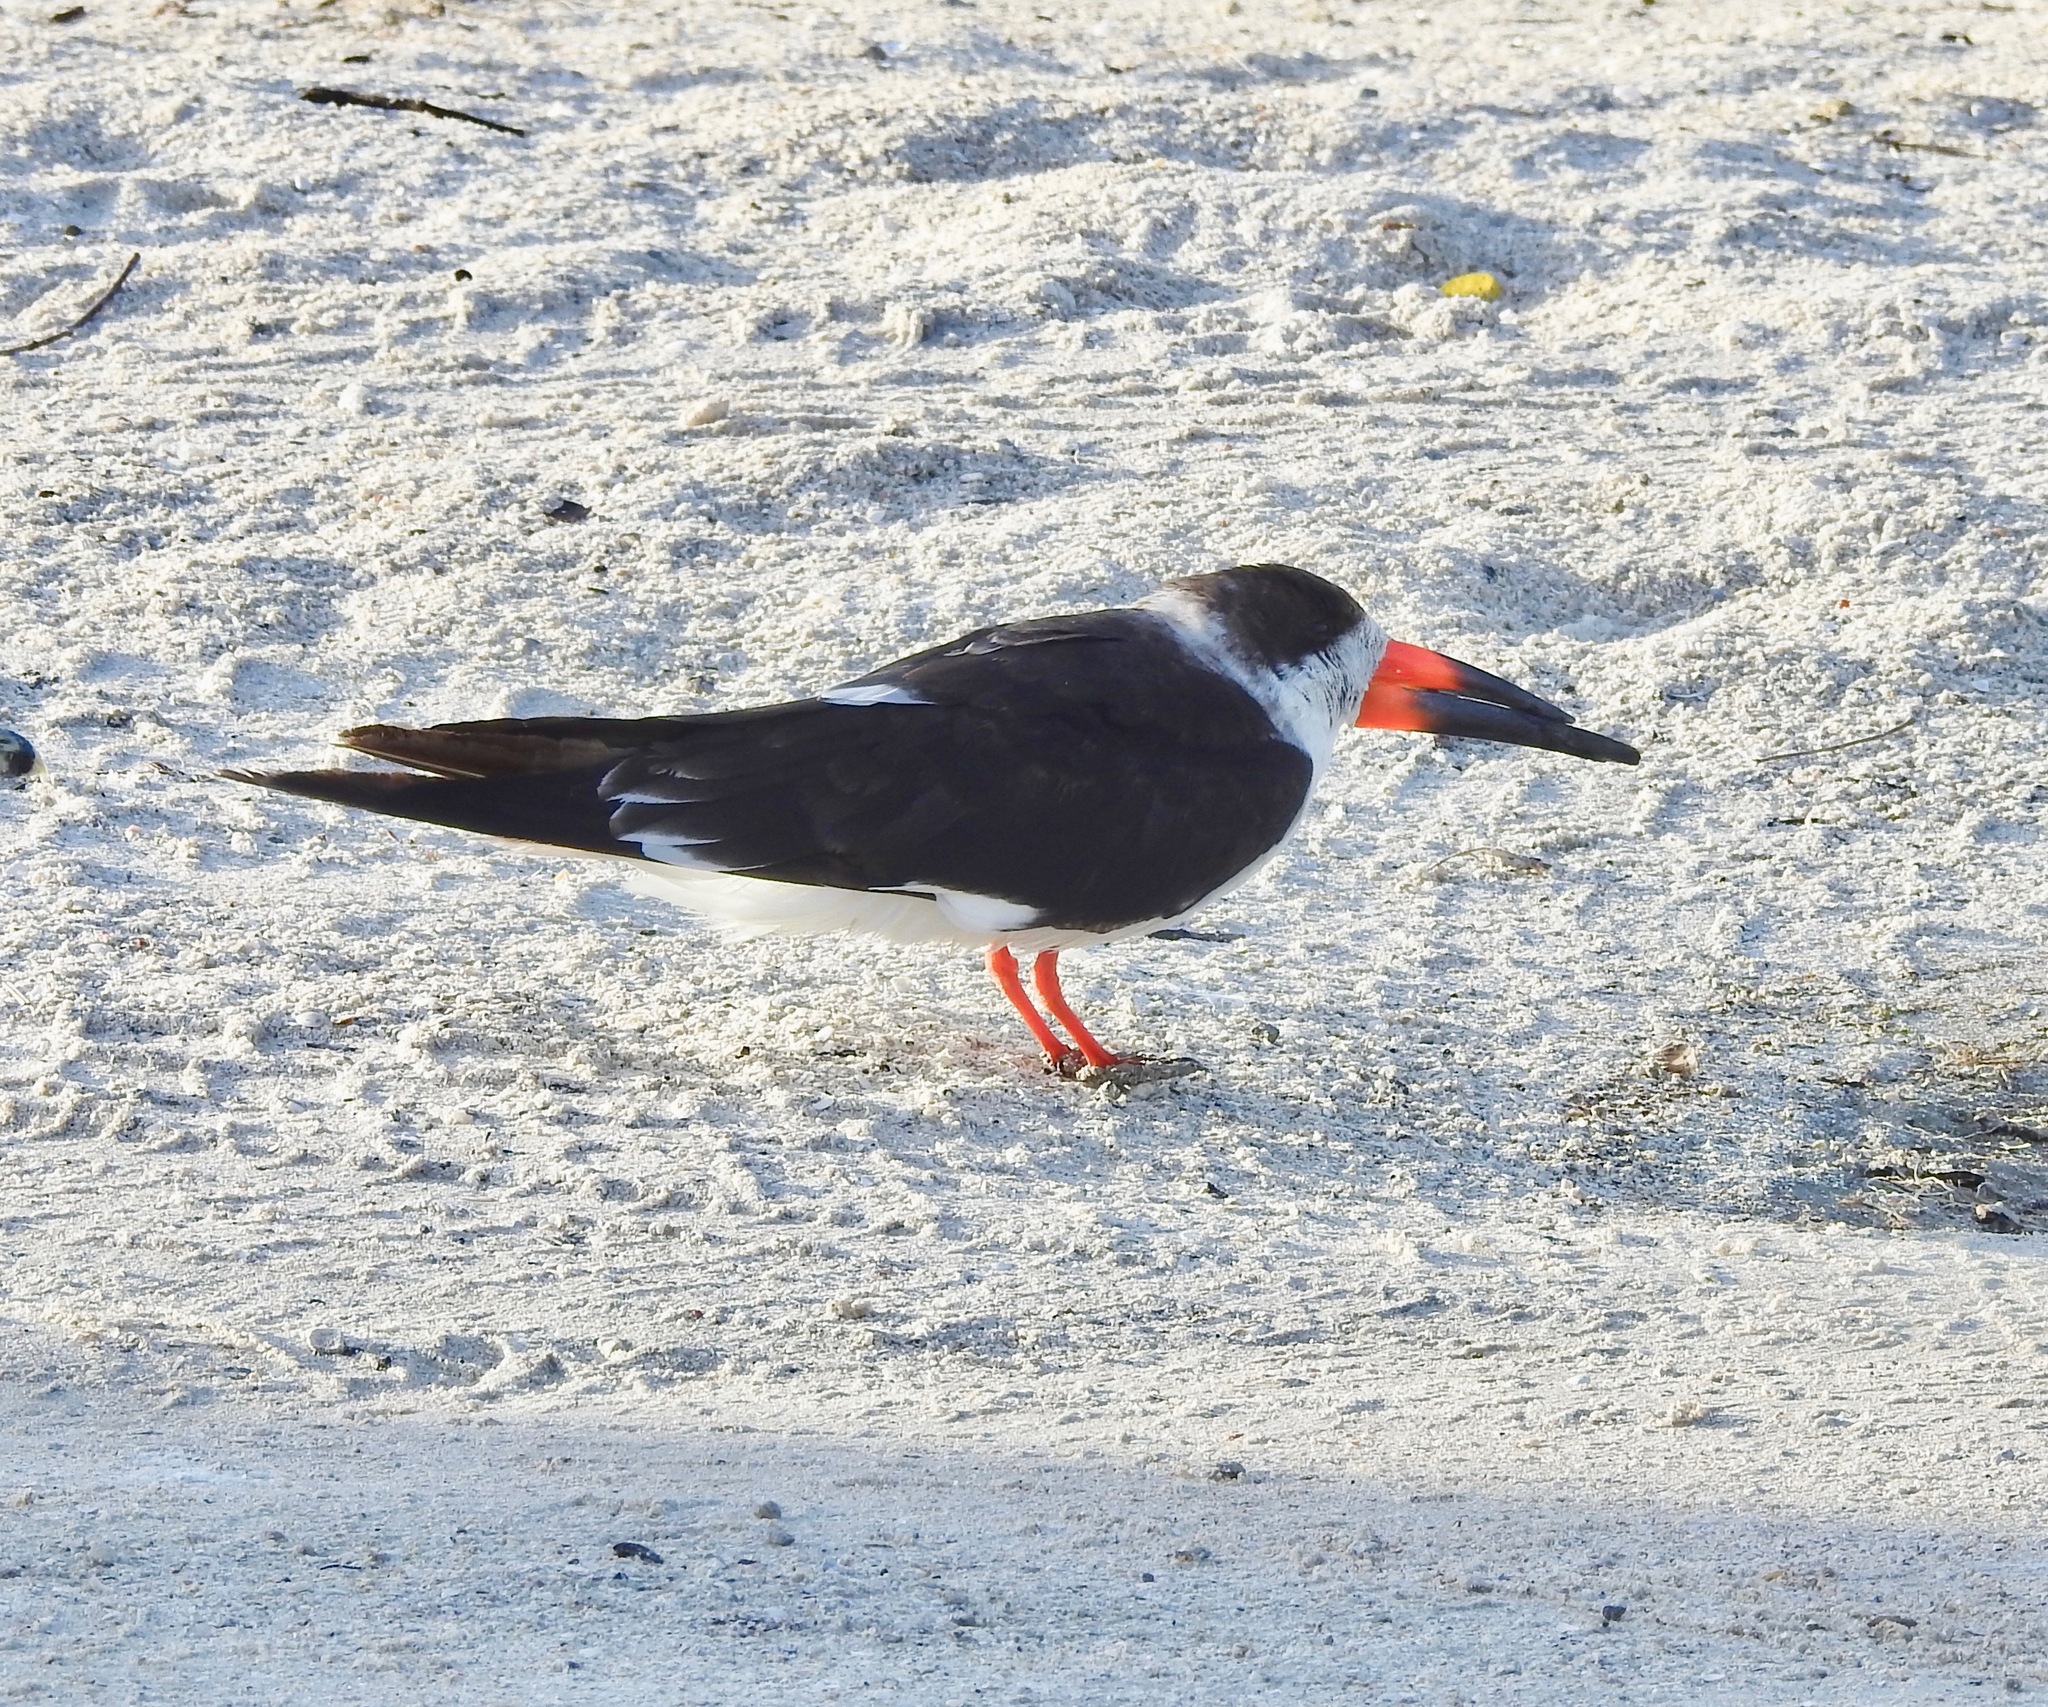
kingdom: Animalia
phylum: Chordata
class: Aves
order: Charadriiformes
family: Laridae
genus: Rynchops
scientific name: Rynchops niger
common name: Black skimmer
